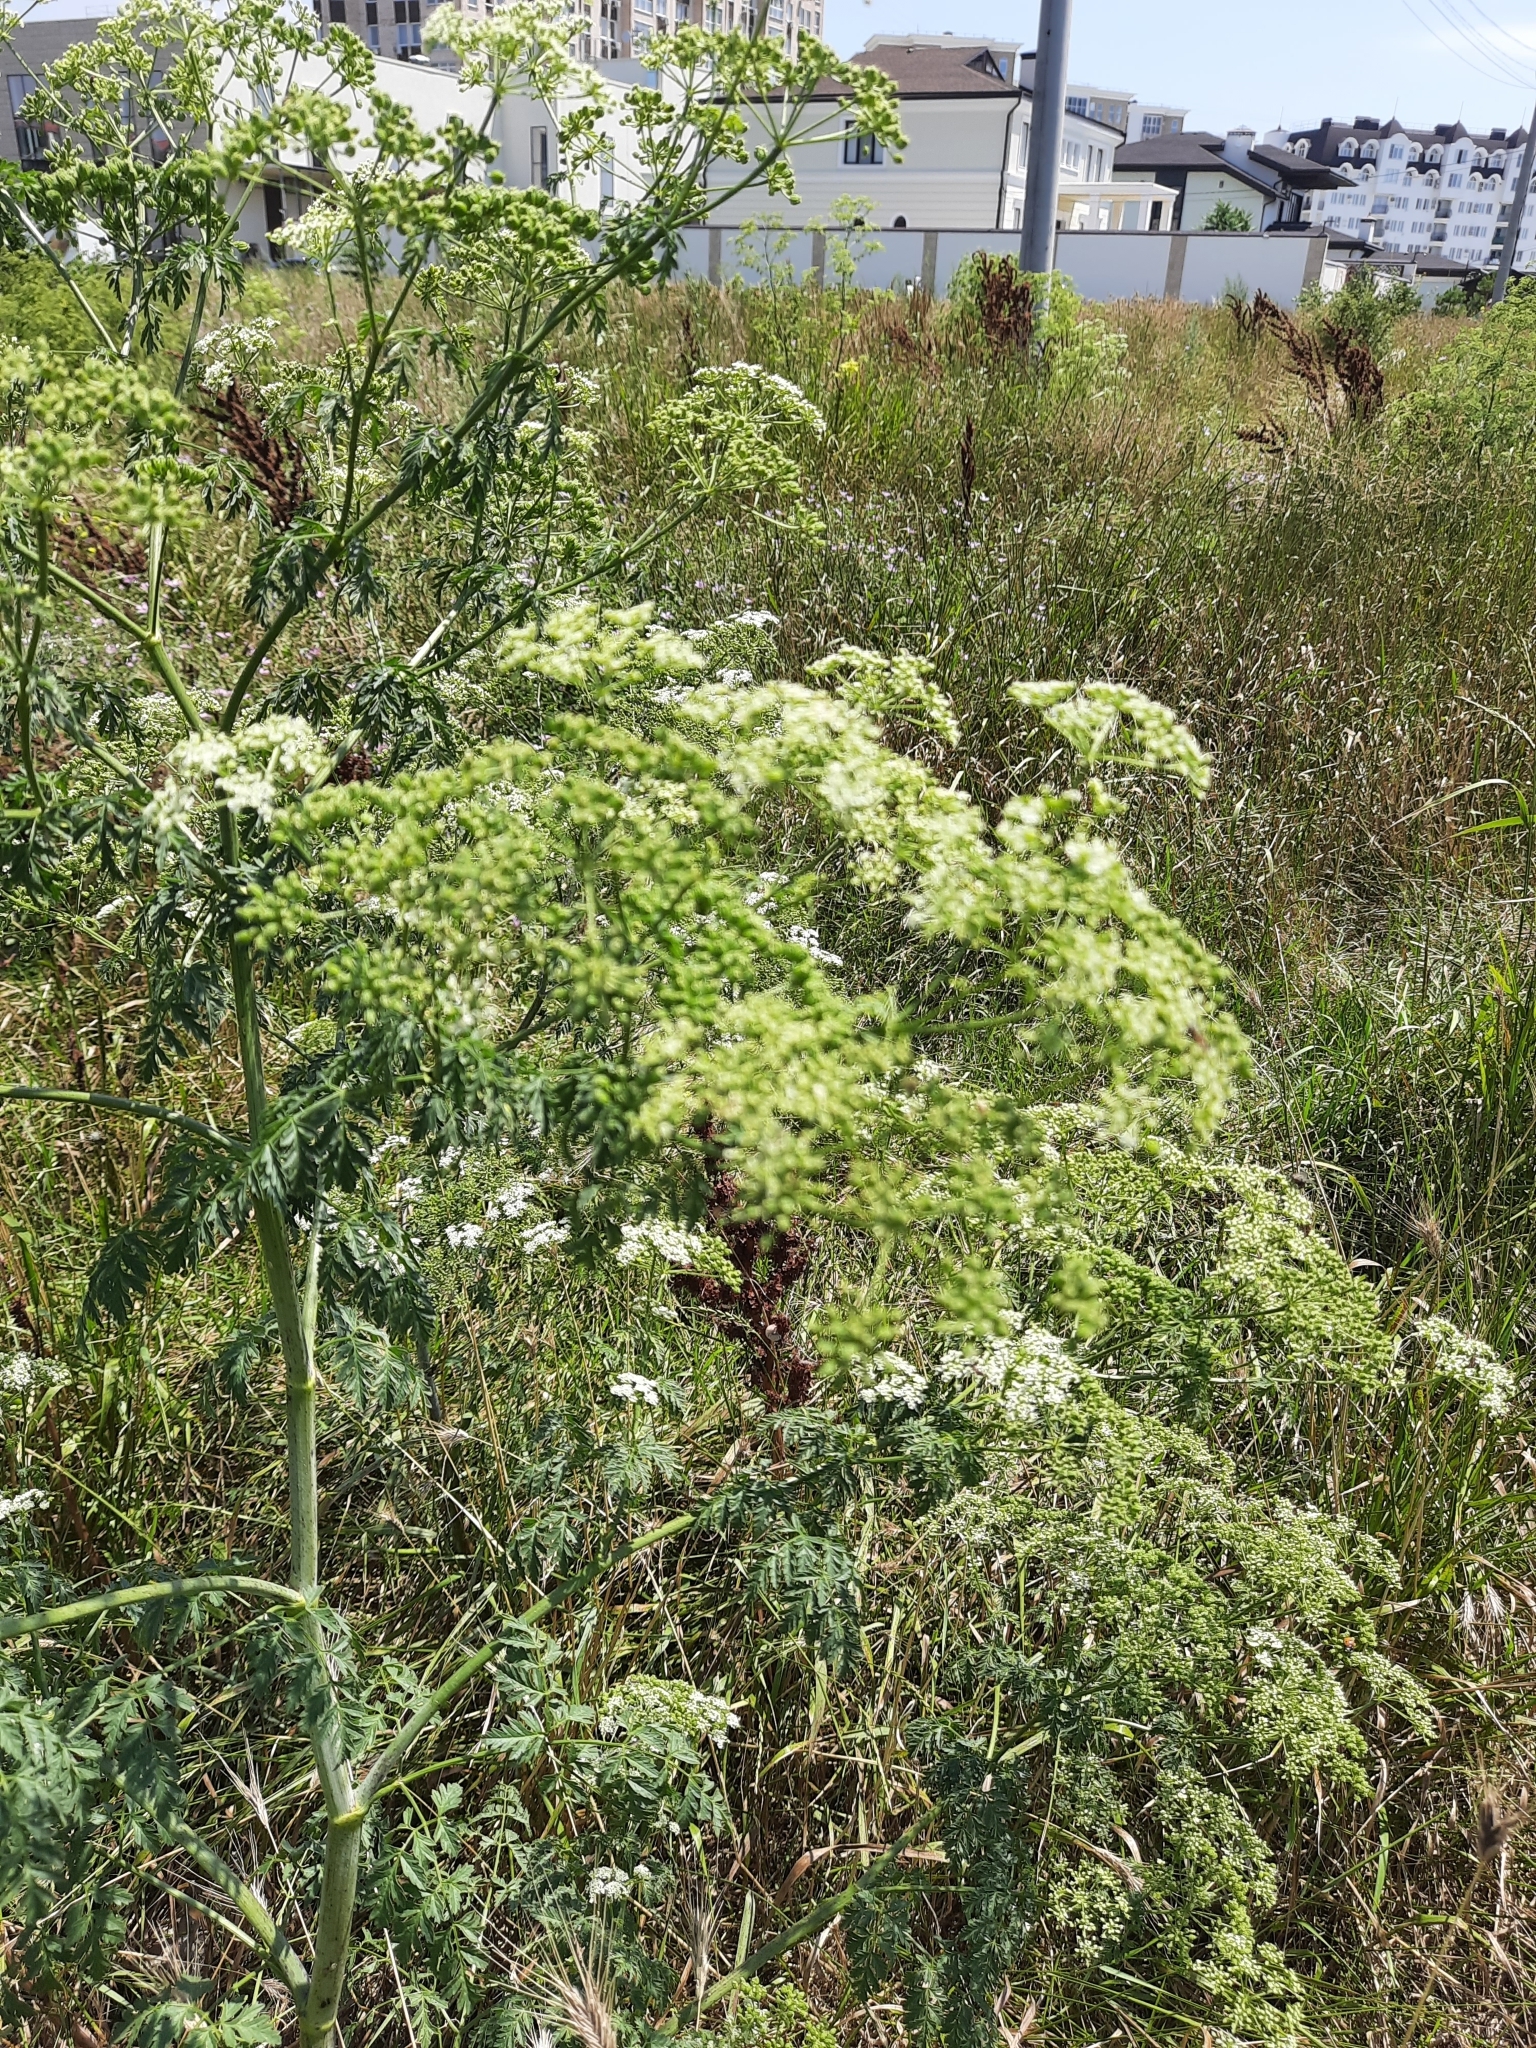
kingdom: Plantae
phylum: Tracheophyta
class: Magnoliopsida
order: Apiales
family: Apiaceae
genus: Conium
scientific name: Conium maculatum
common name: Hemlock
